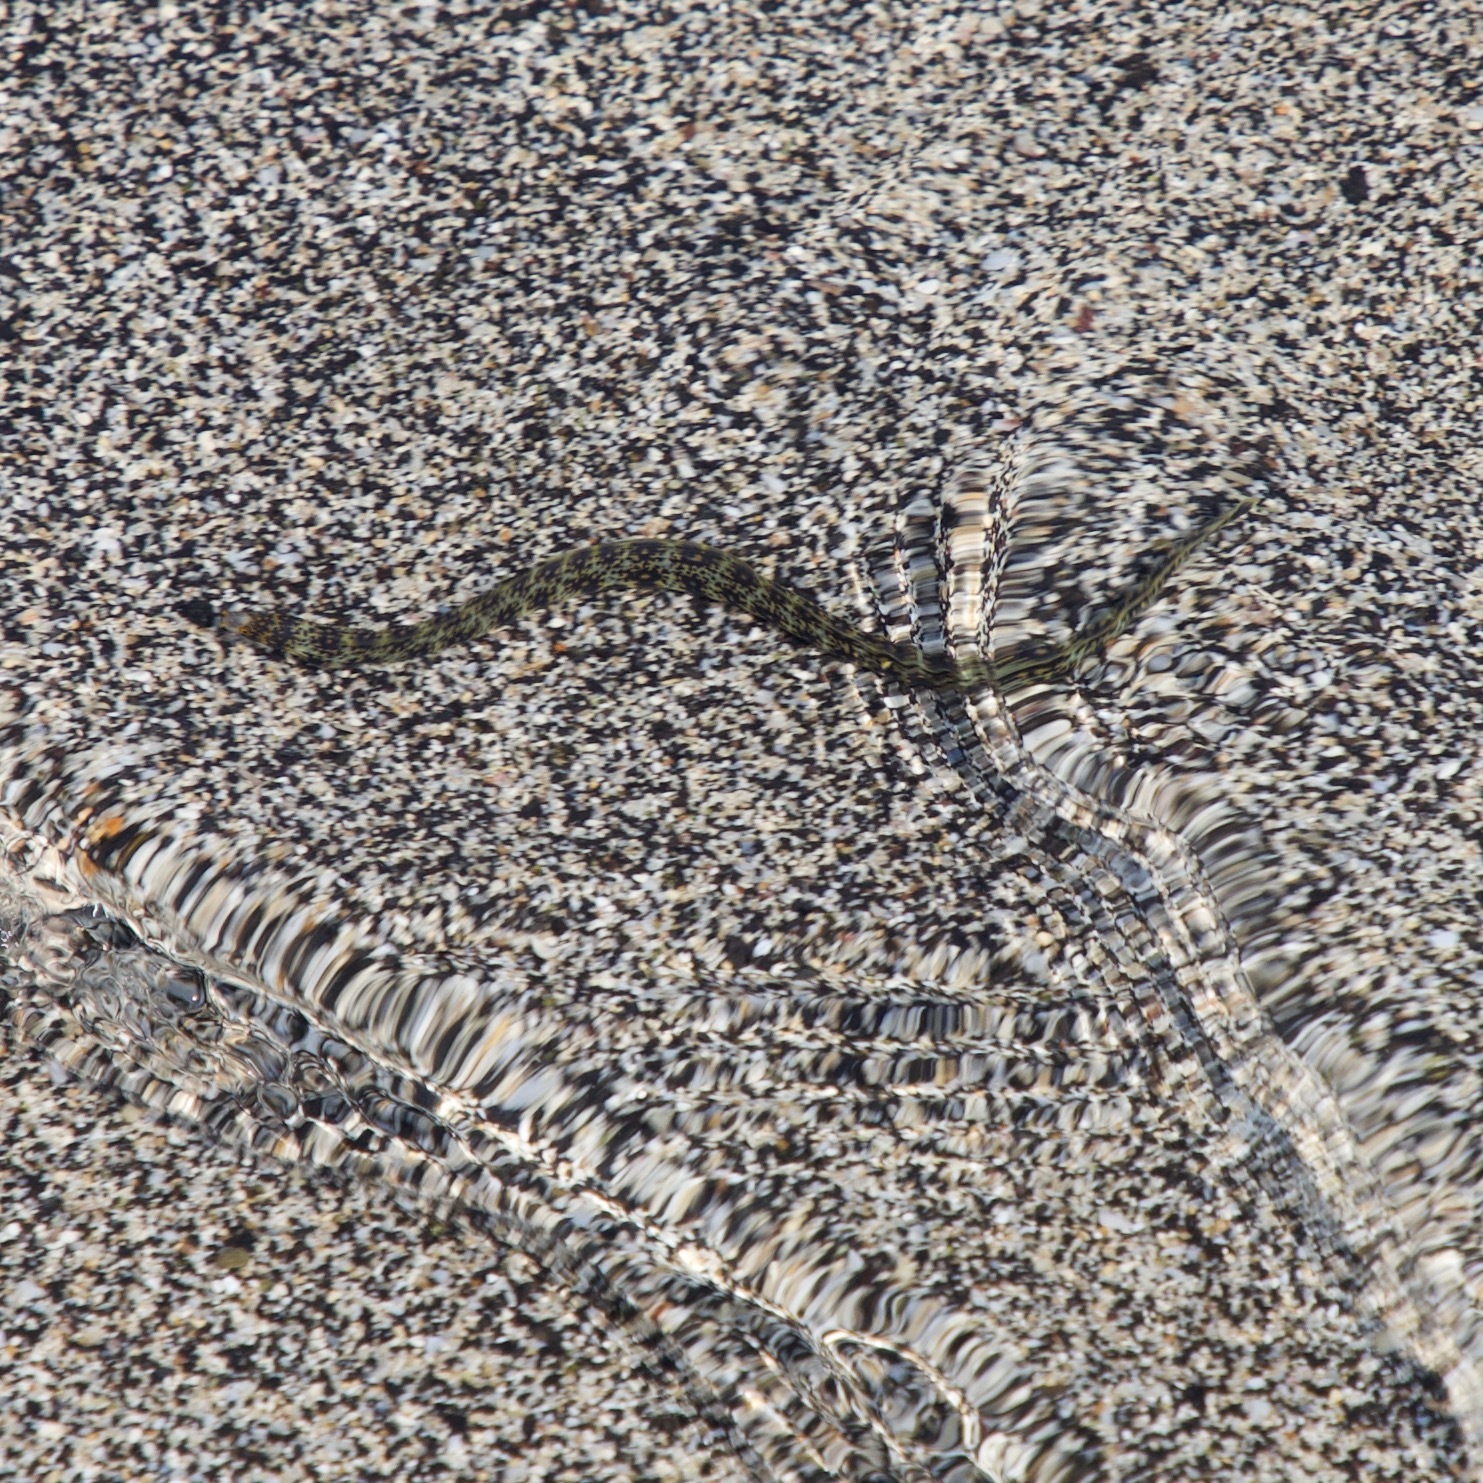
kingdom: Animalia
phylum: Chordata
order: Anguilliformes
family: Muraenidae
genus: Echidna
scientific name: Echidna nebulosa
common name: Snowflake moray
